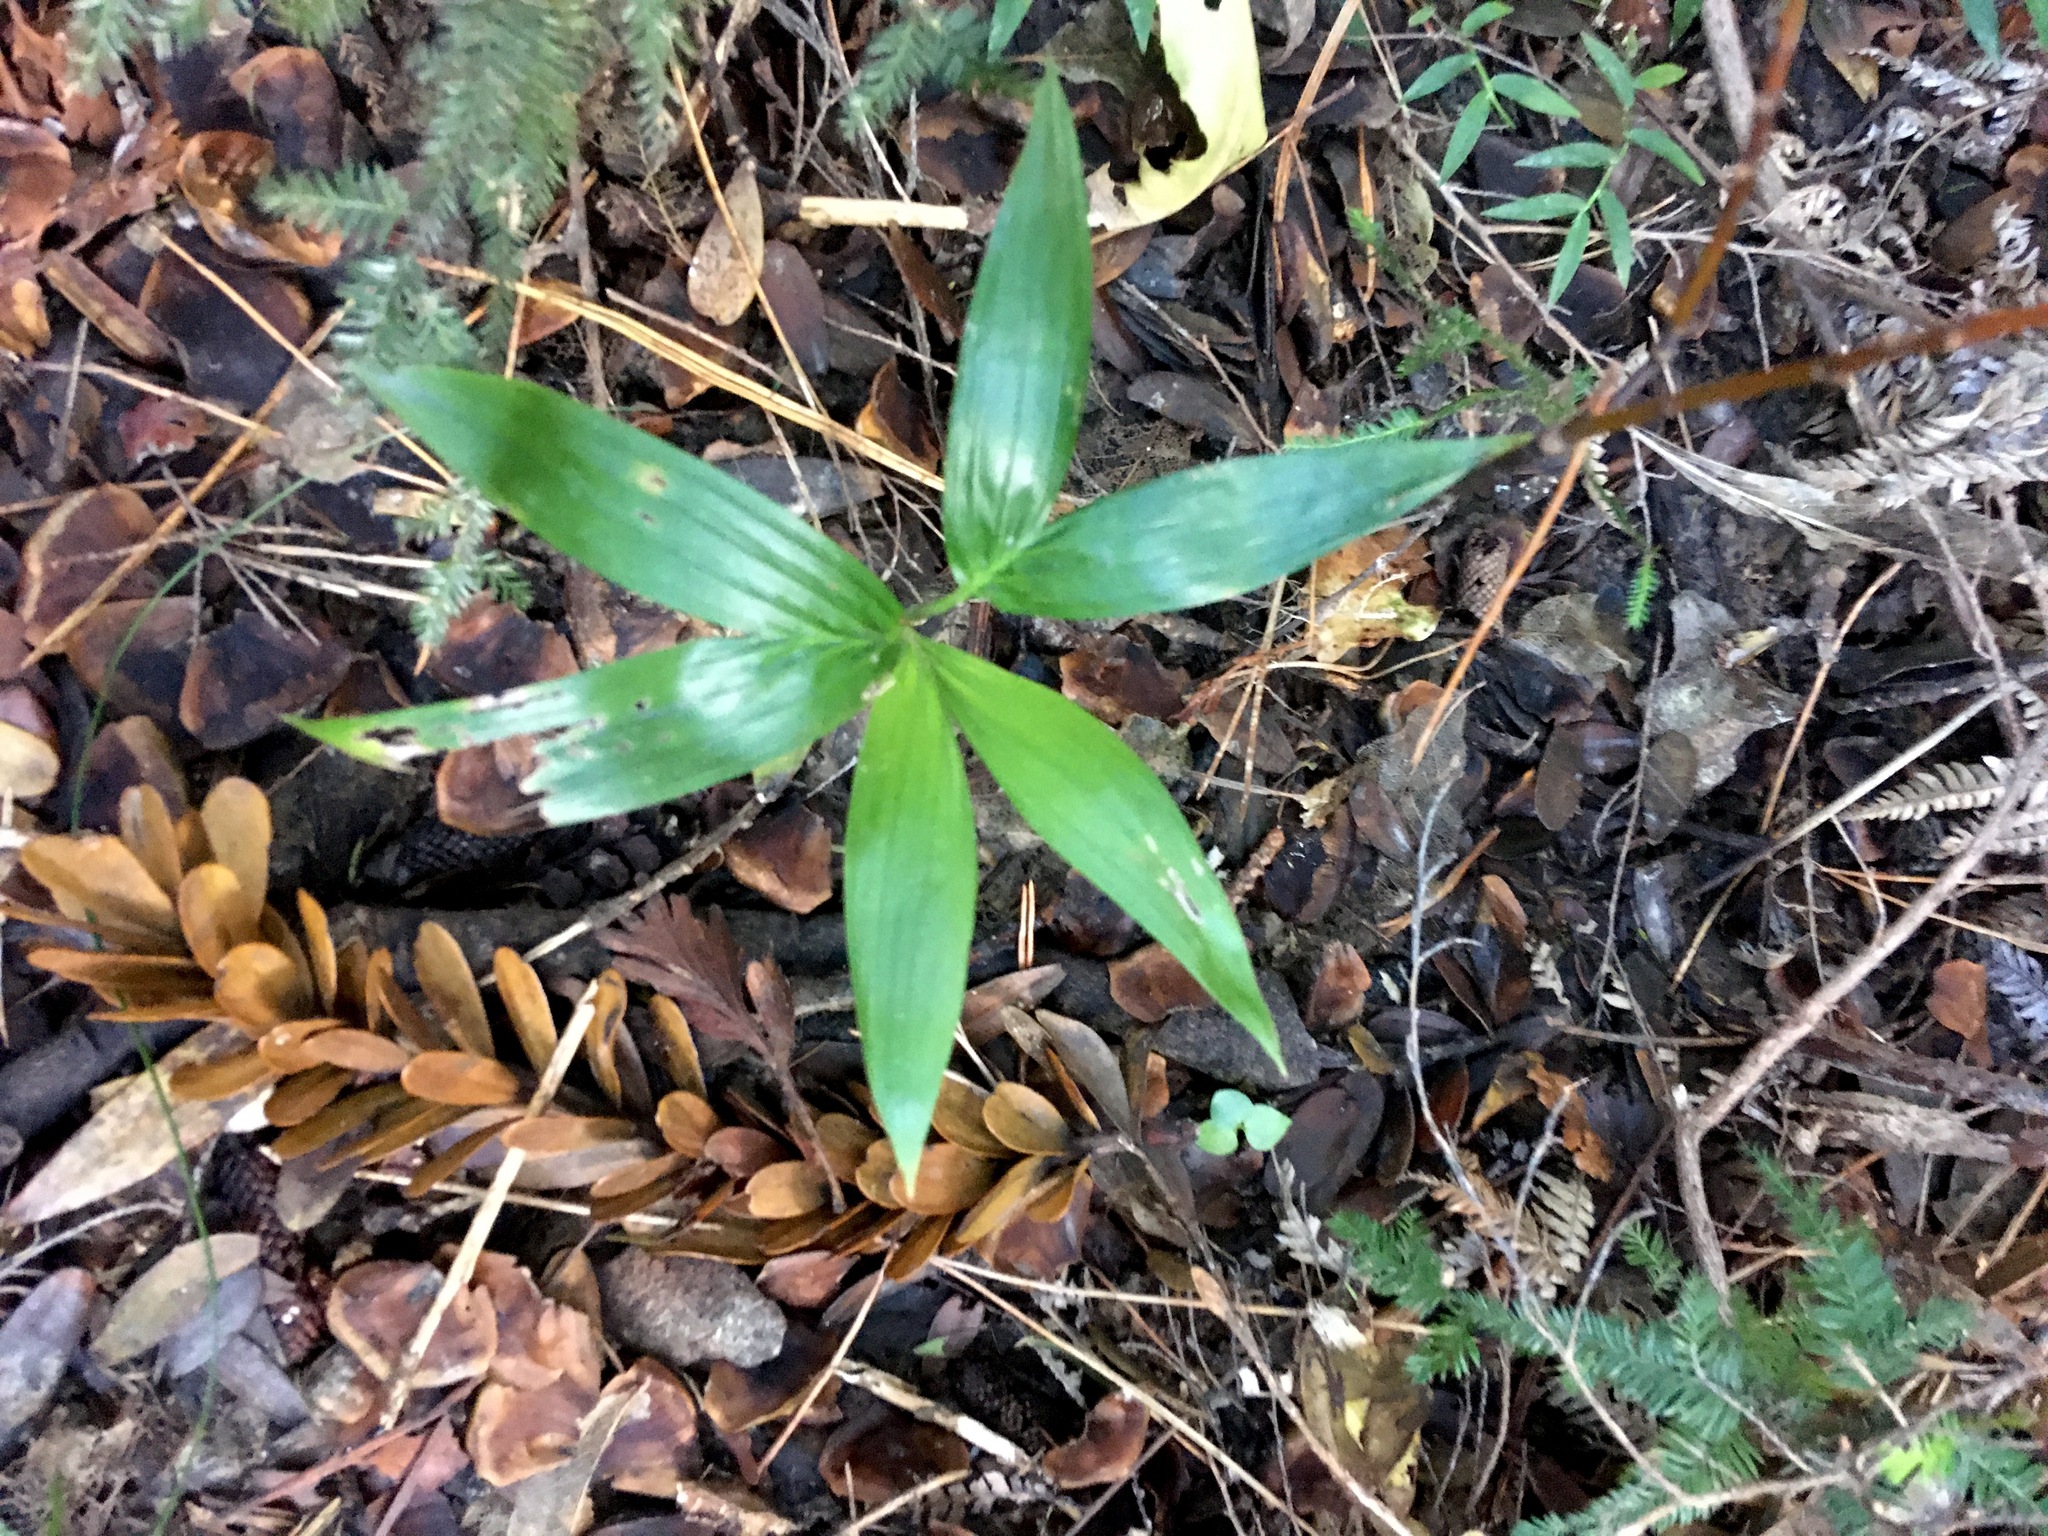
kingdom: Plantae
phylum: Tracheophyta
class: Liliopsida
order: Arecales
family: Arecaceae
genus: Archontophoenix
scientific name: Archontophoenix cunninghamiana
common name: Piccabeen bangalow palm
